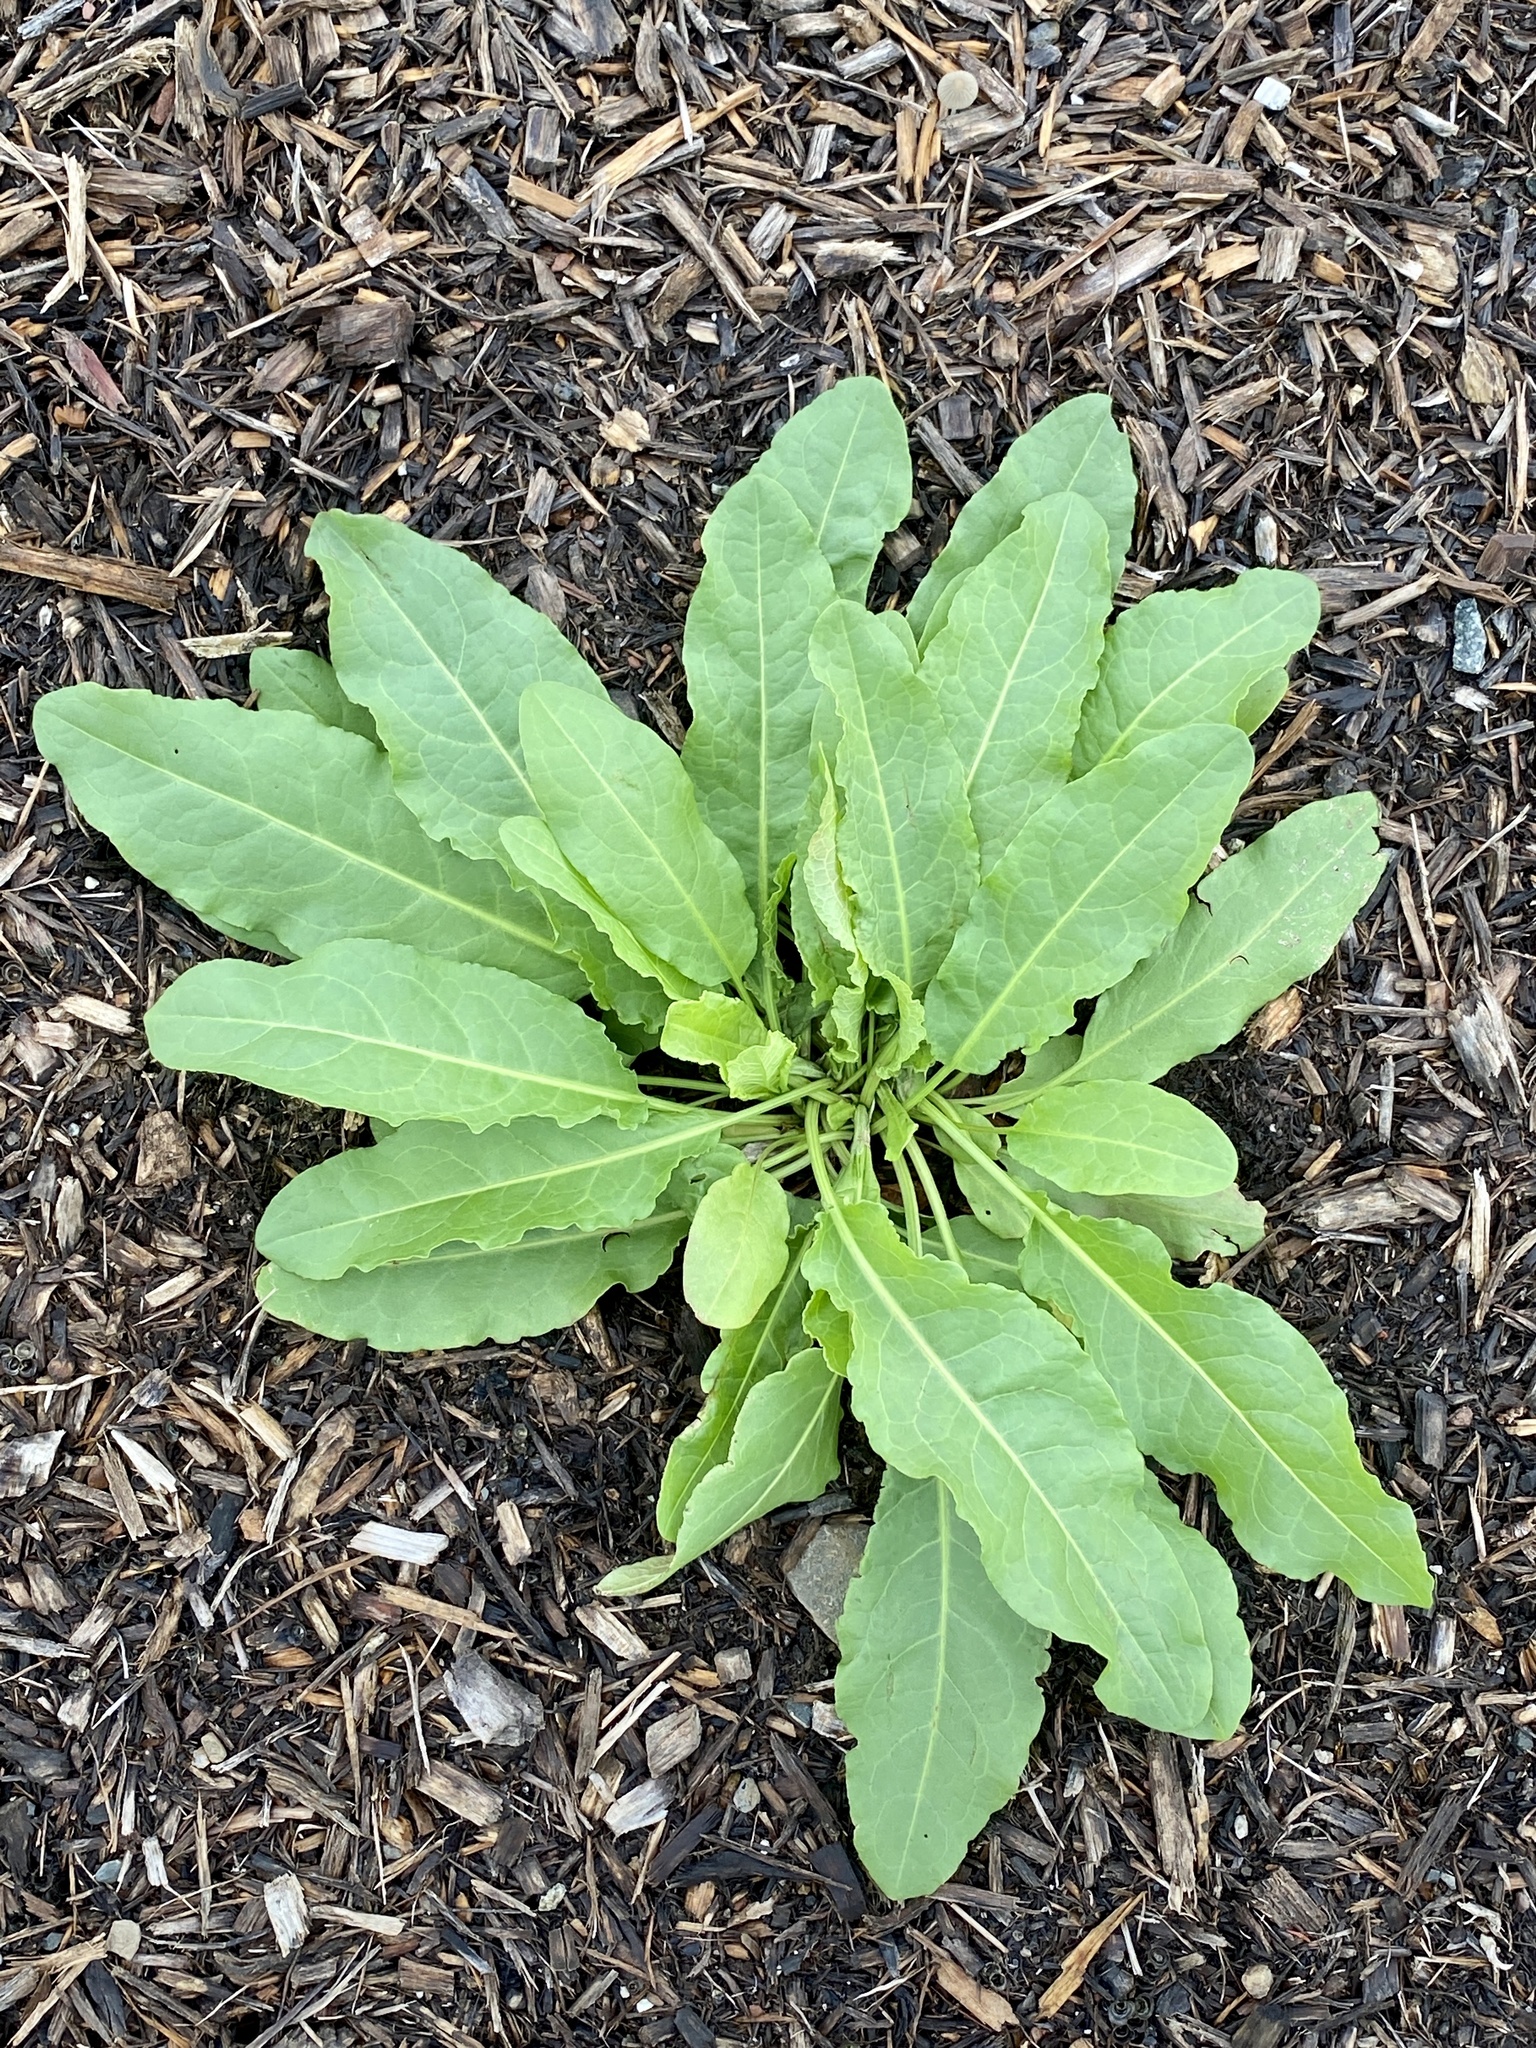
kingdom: Plantae
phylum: Tracheophyta
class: Magnoliopsida
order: Caryophyllales
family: Polygonaceae
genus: Rumex
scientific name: Rumex crispus
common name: Curled dock
